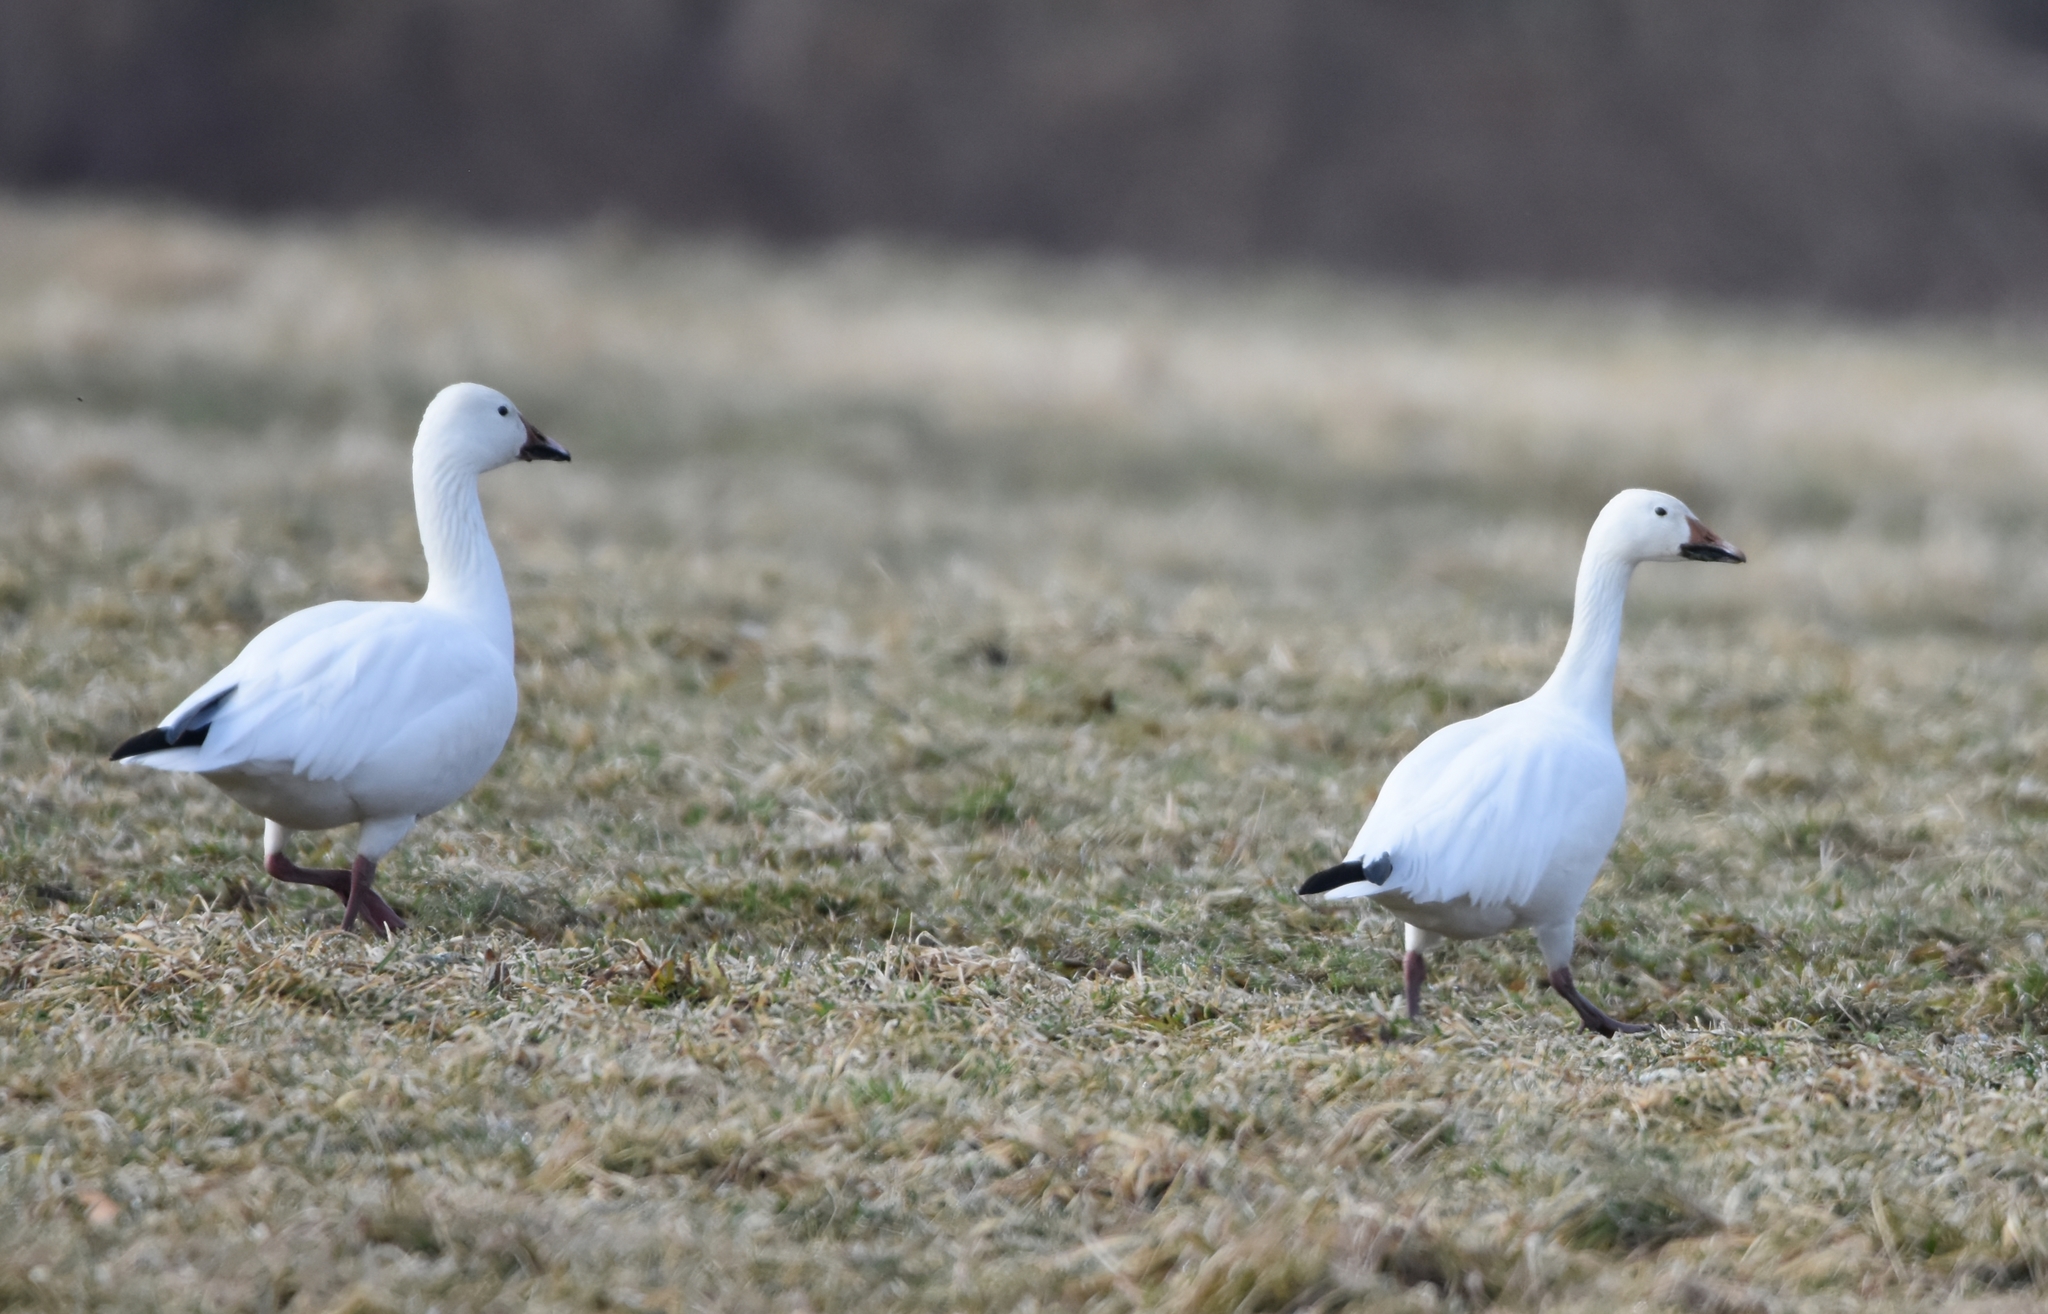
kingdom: Animalia
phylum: Chordata
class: Aves
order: Anseriformes
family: Anatidae
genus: Anser
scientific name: Anser caerulescens
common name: Snow goose
